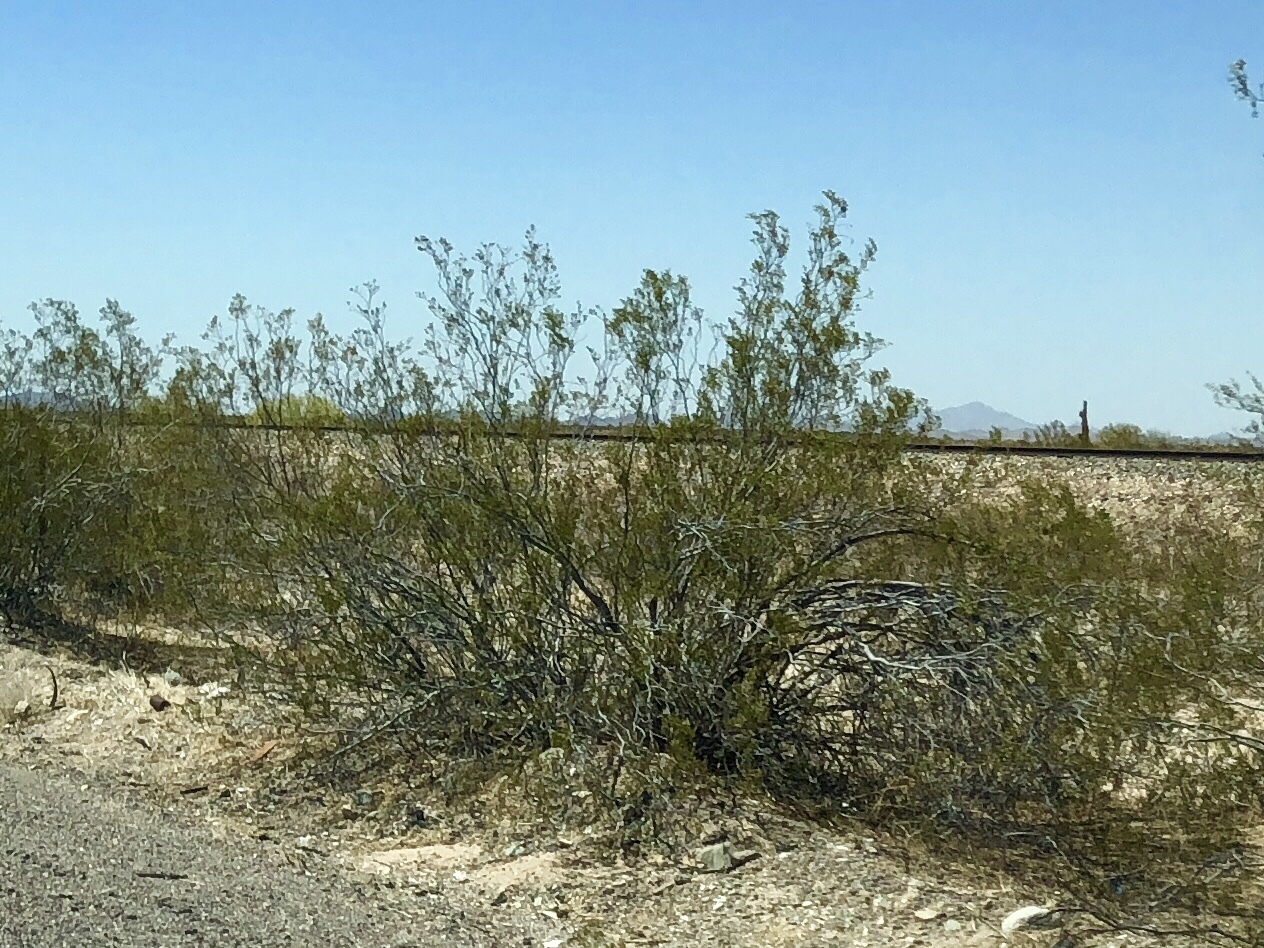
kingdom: Plantae
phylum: Tracheophyta
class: Magnoliopsida
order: Zygophyllales
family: Zygophyllaceae
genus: Larrea
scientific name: Larrea tridentata
